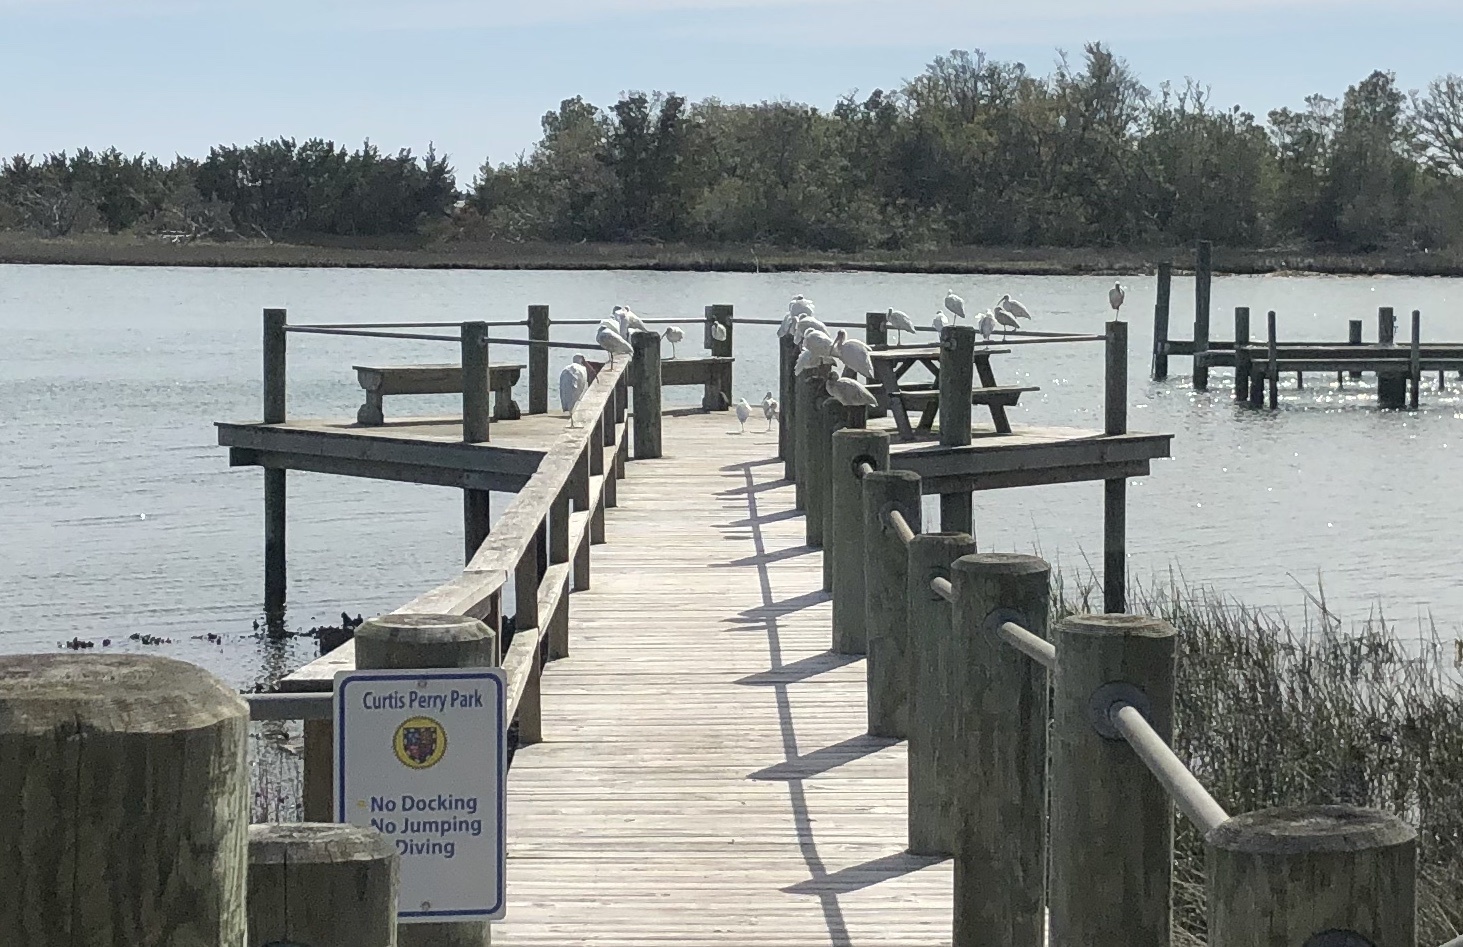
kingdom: Animalia
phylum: Chordata
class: Aves
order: Pelecaniformes
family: Threskiornithidae
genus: Eudocimus
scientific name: Eudocimus albus
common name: White ibis
